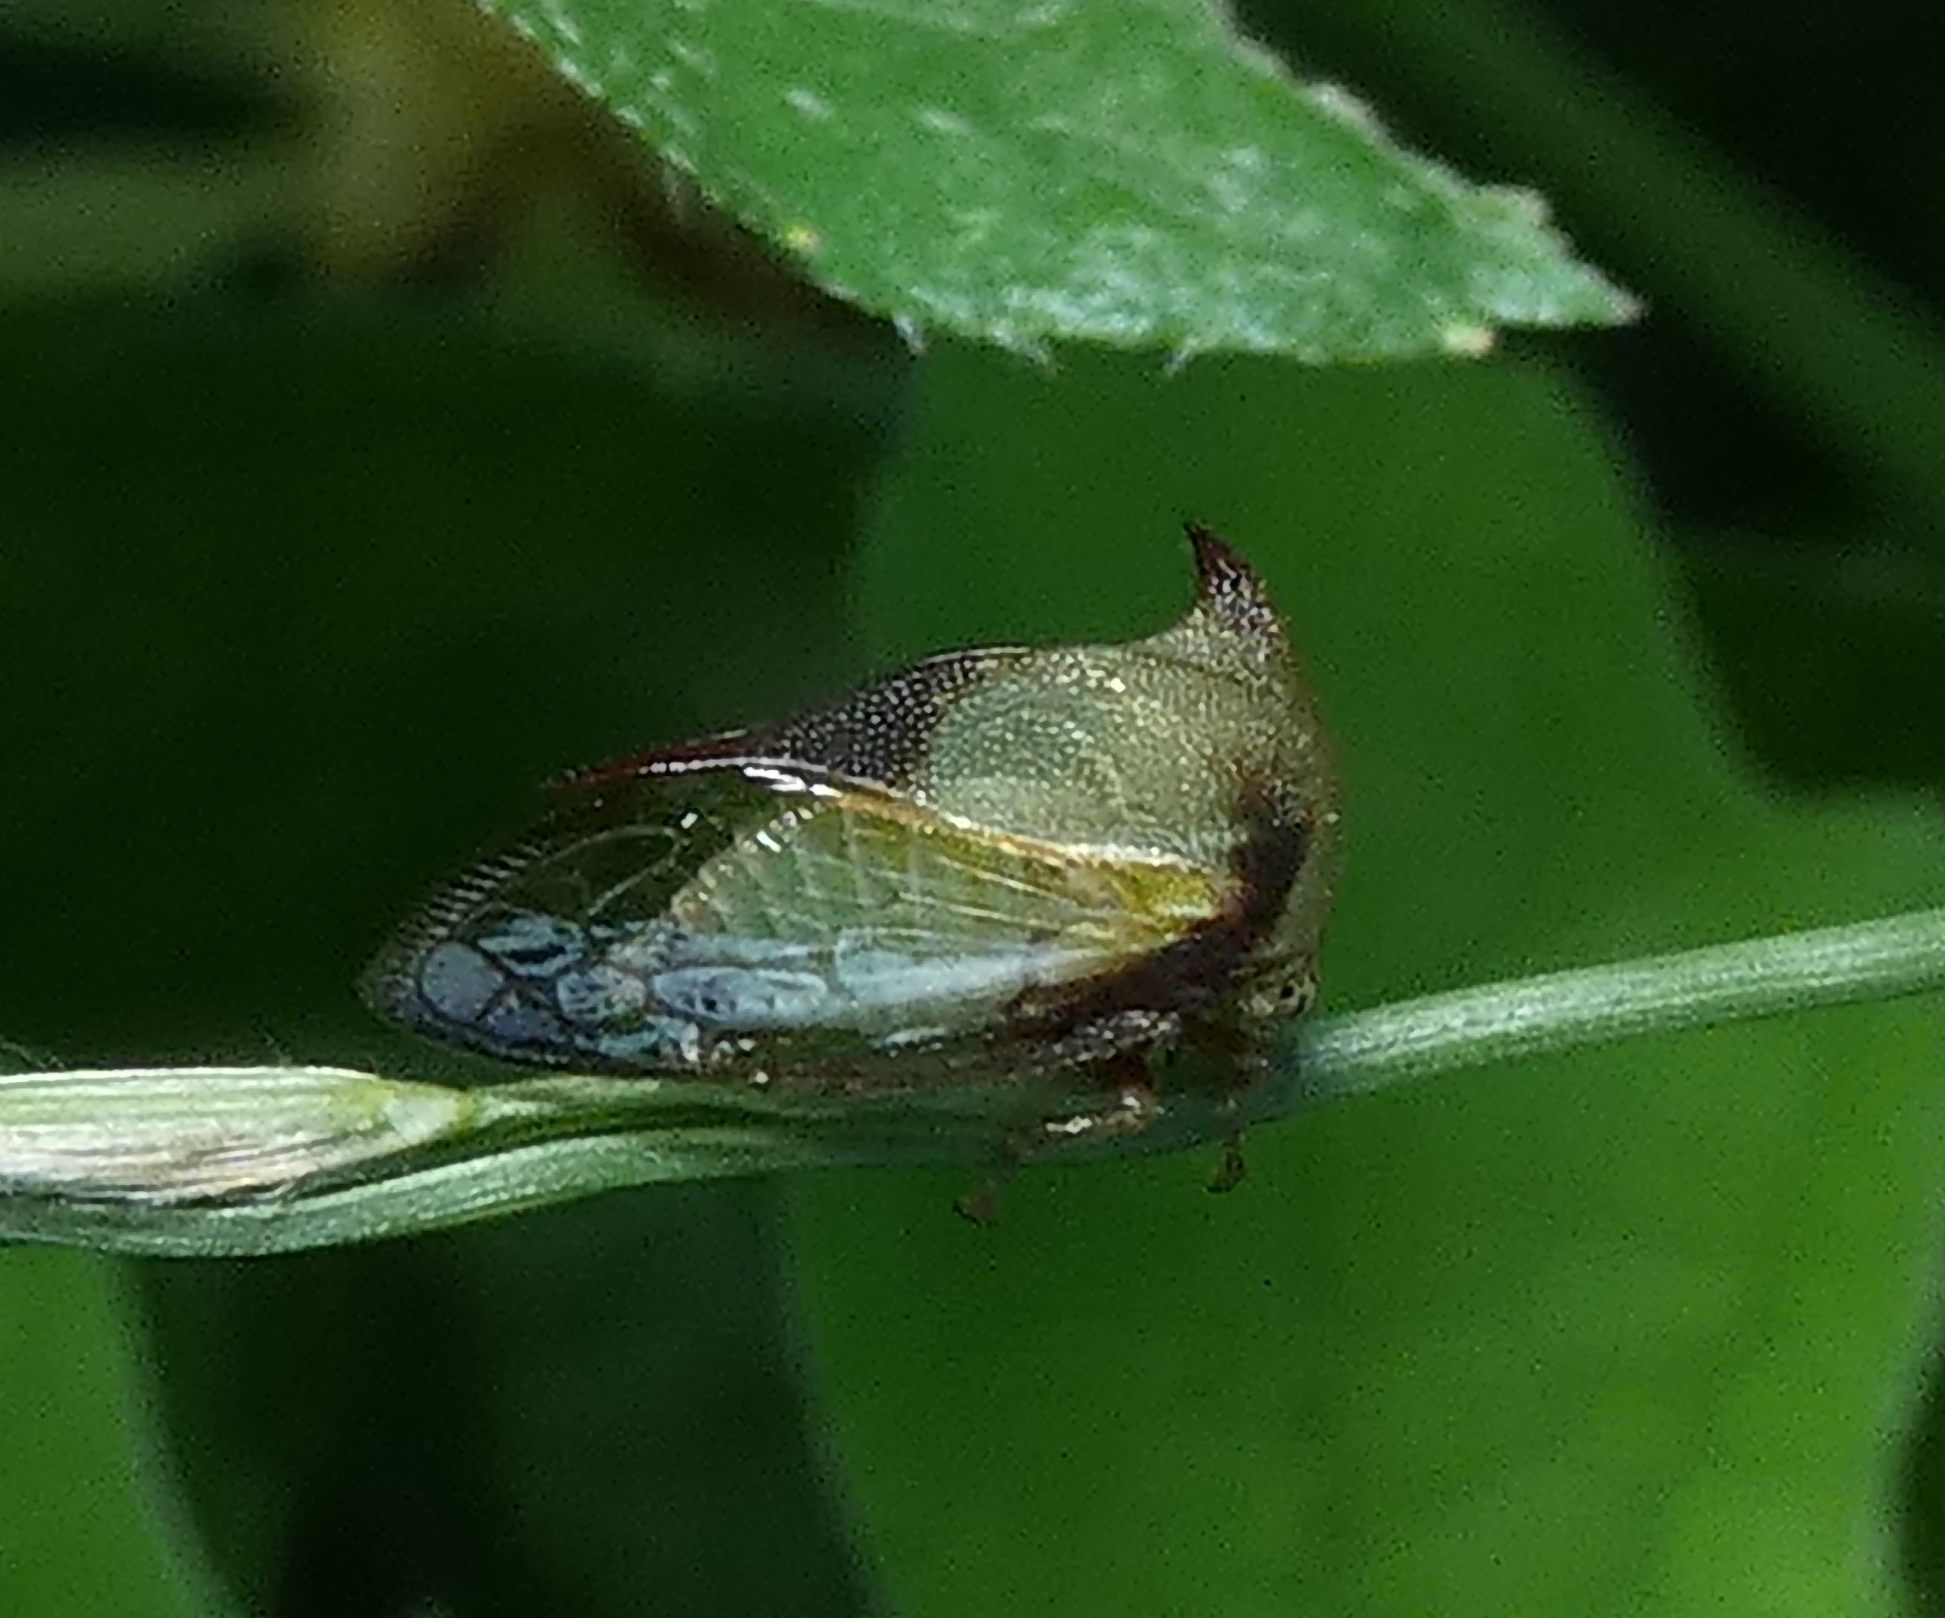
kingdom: Animalia
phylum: Arthropoda
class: Insecta
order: Hemiptera
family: Membracidae
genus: Ceresa
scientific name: Ceresa ustulata
